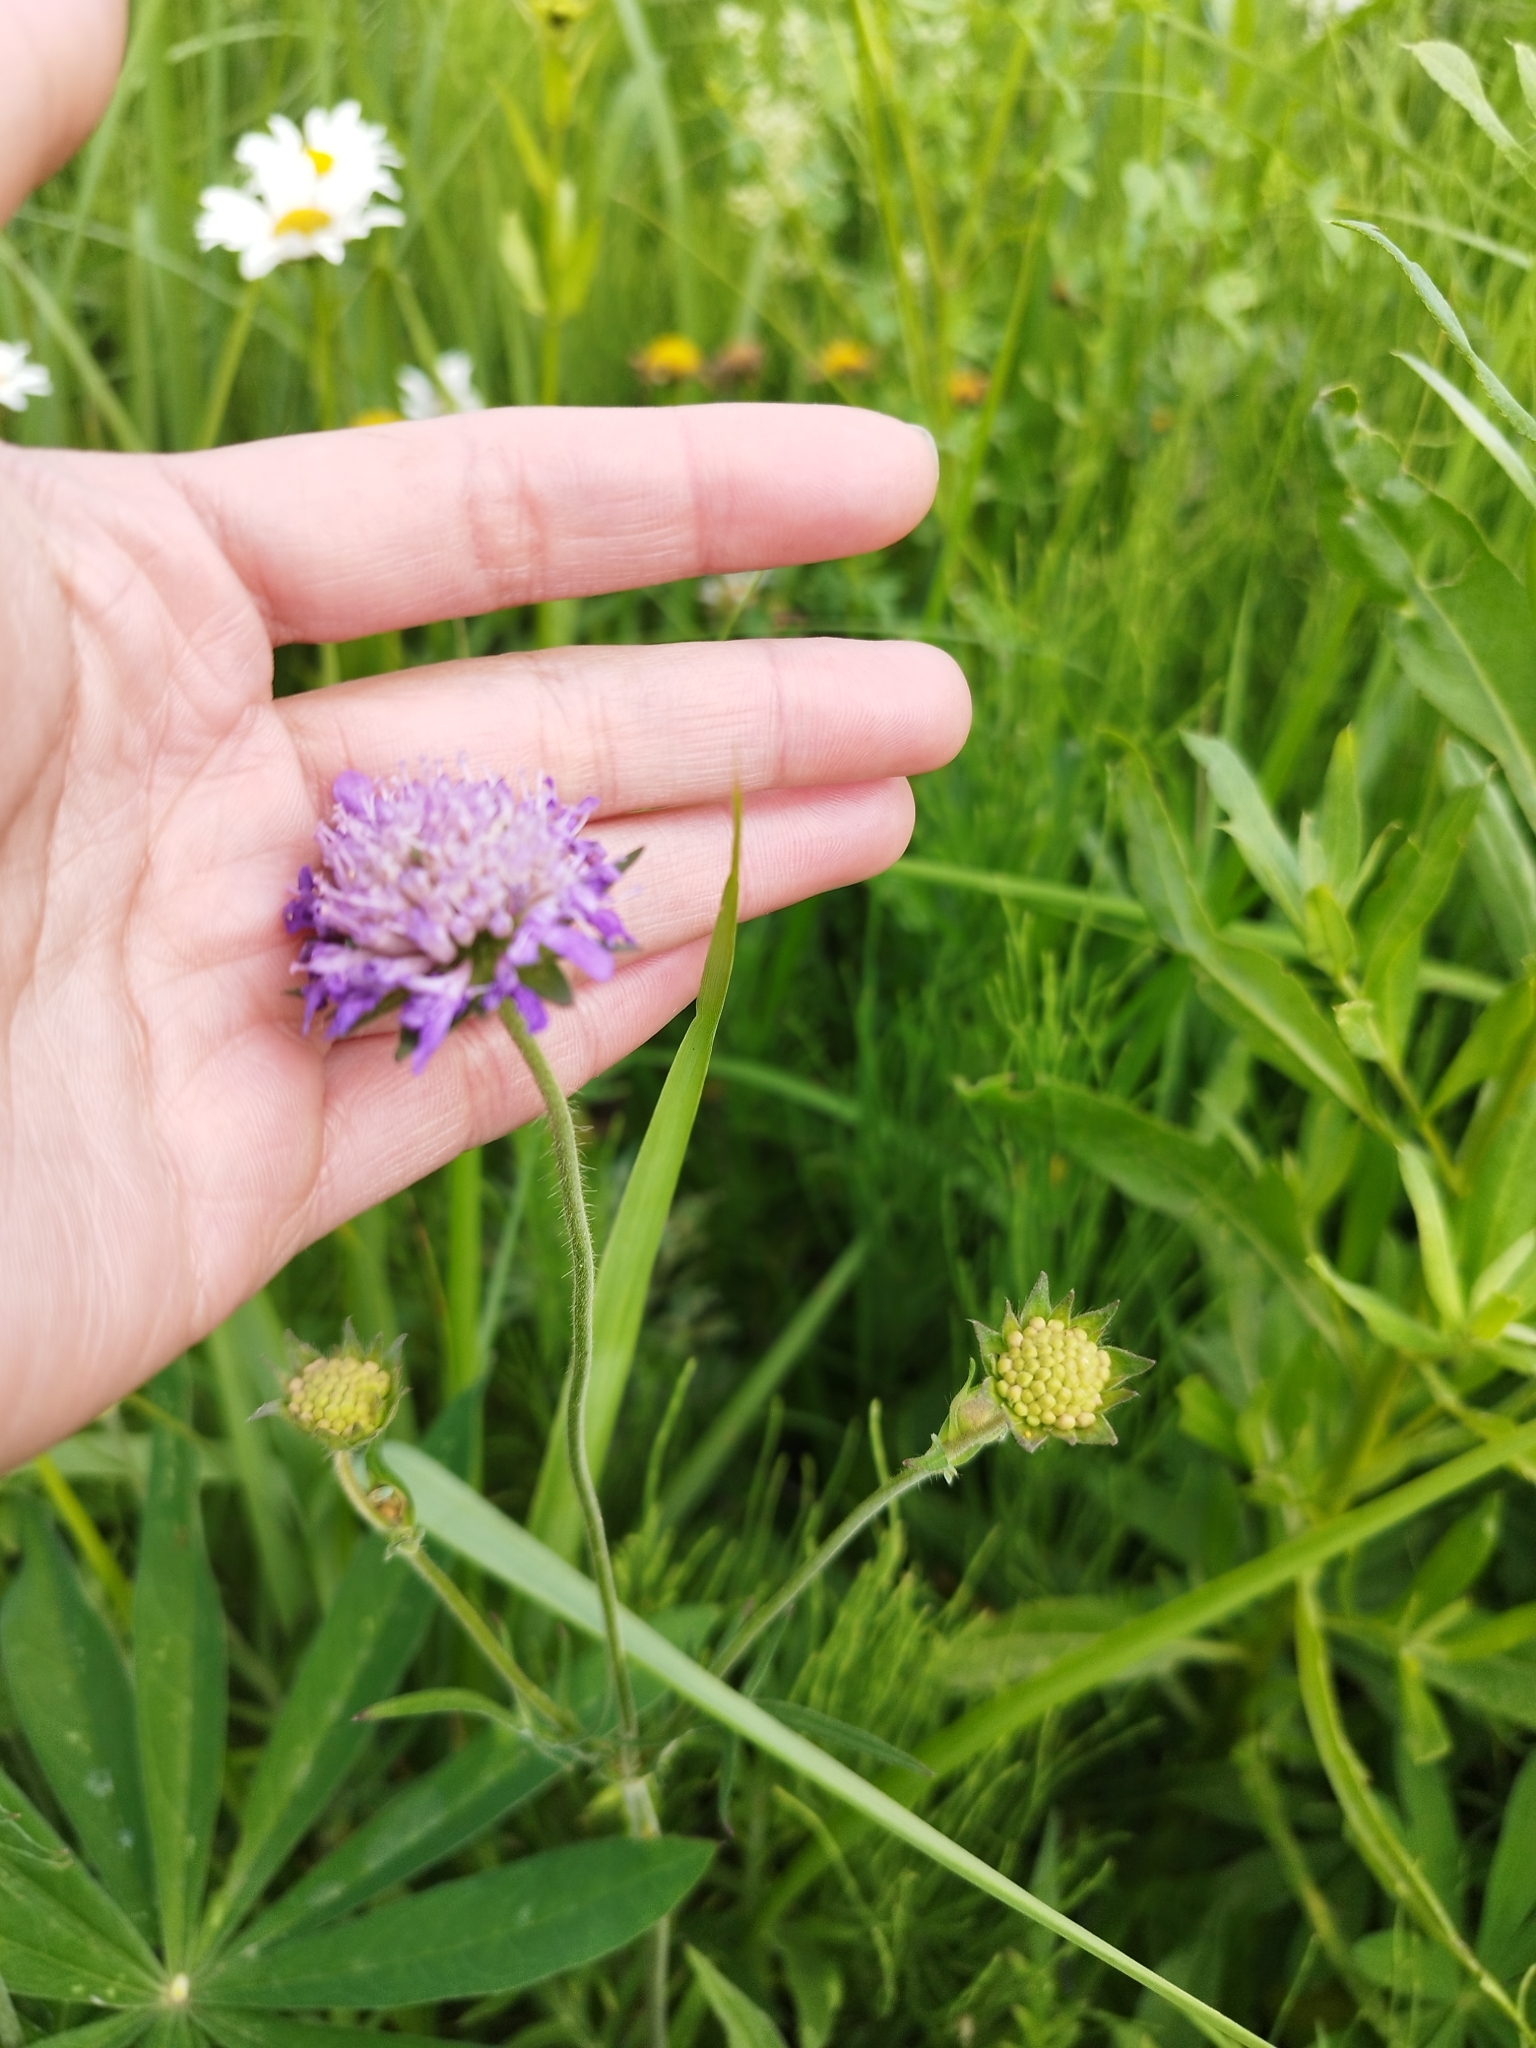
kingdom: Plantae
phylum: Tracheophyta
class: Magnoliopsida
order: Dipsacales
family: Caprifoliaceae
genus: Knautia
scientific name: Knautia arvensis
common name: Field scabiosa
